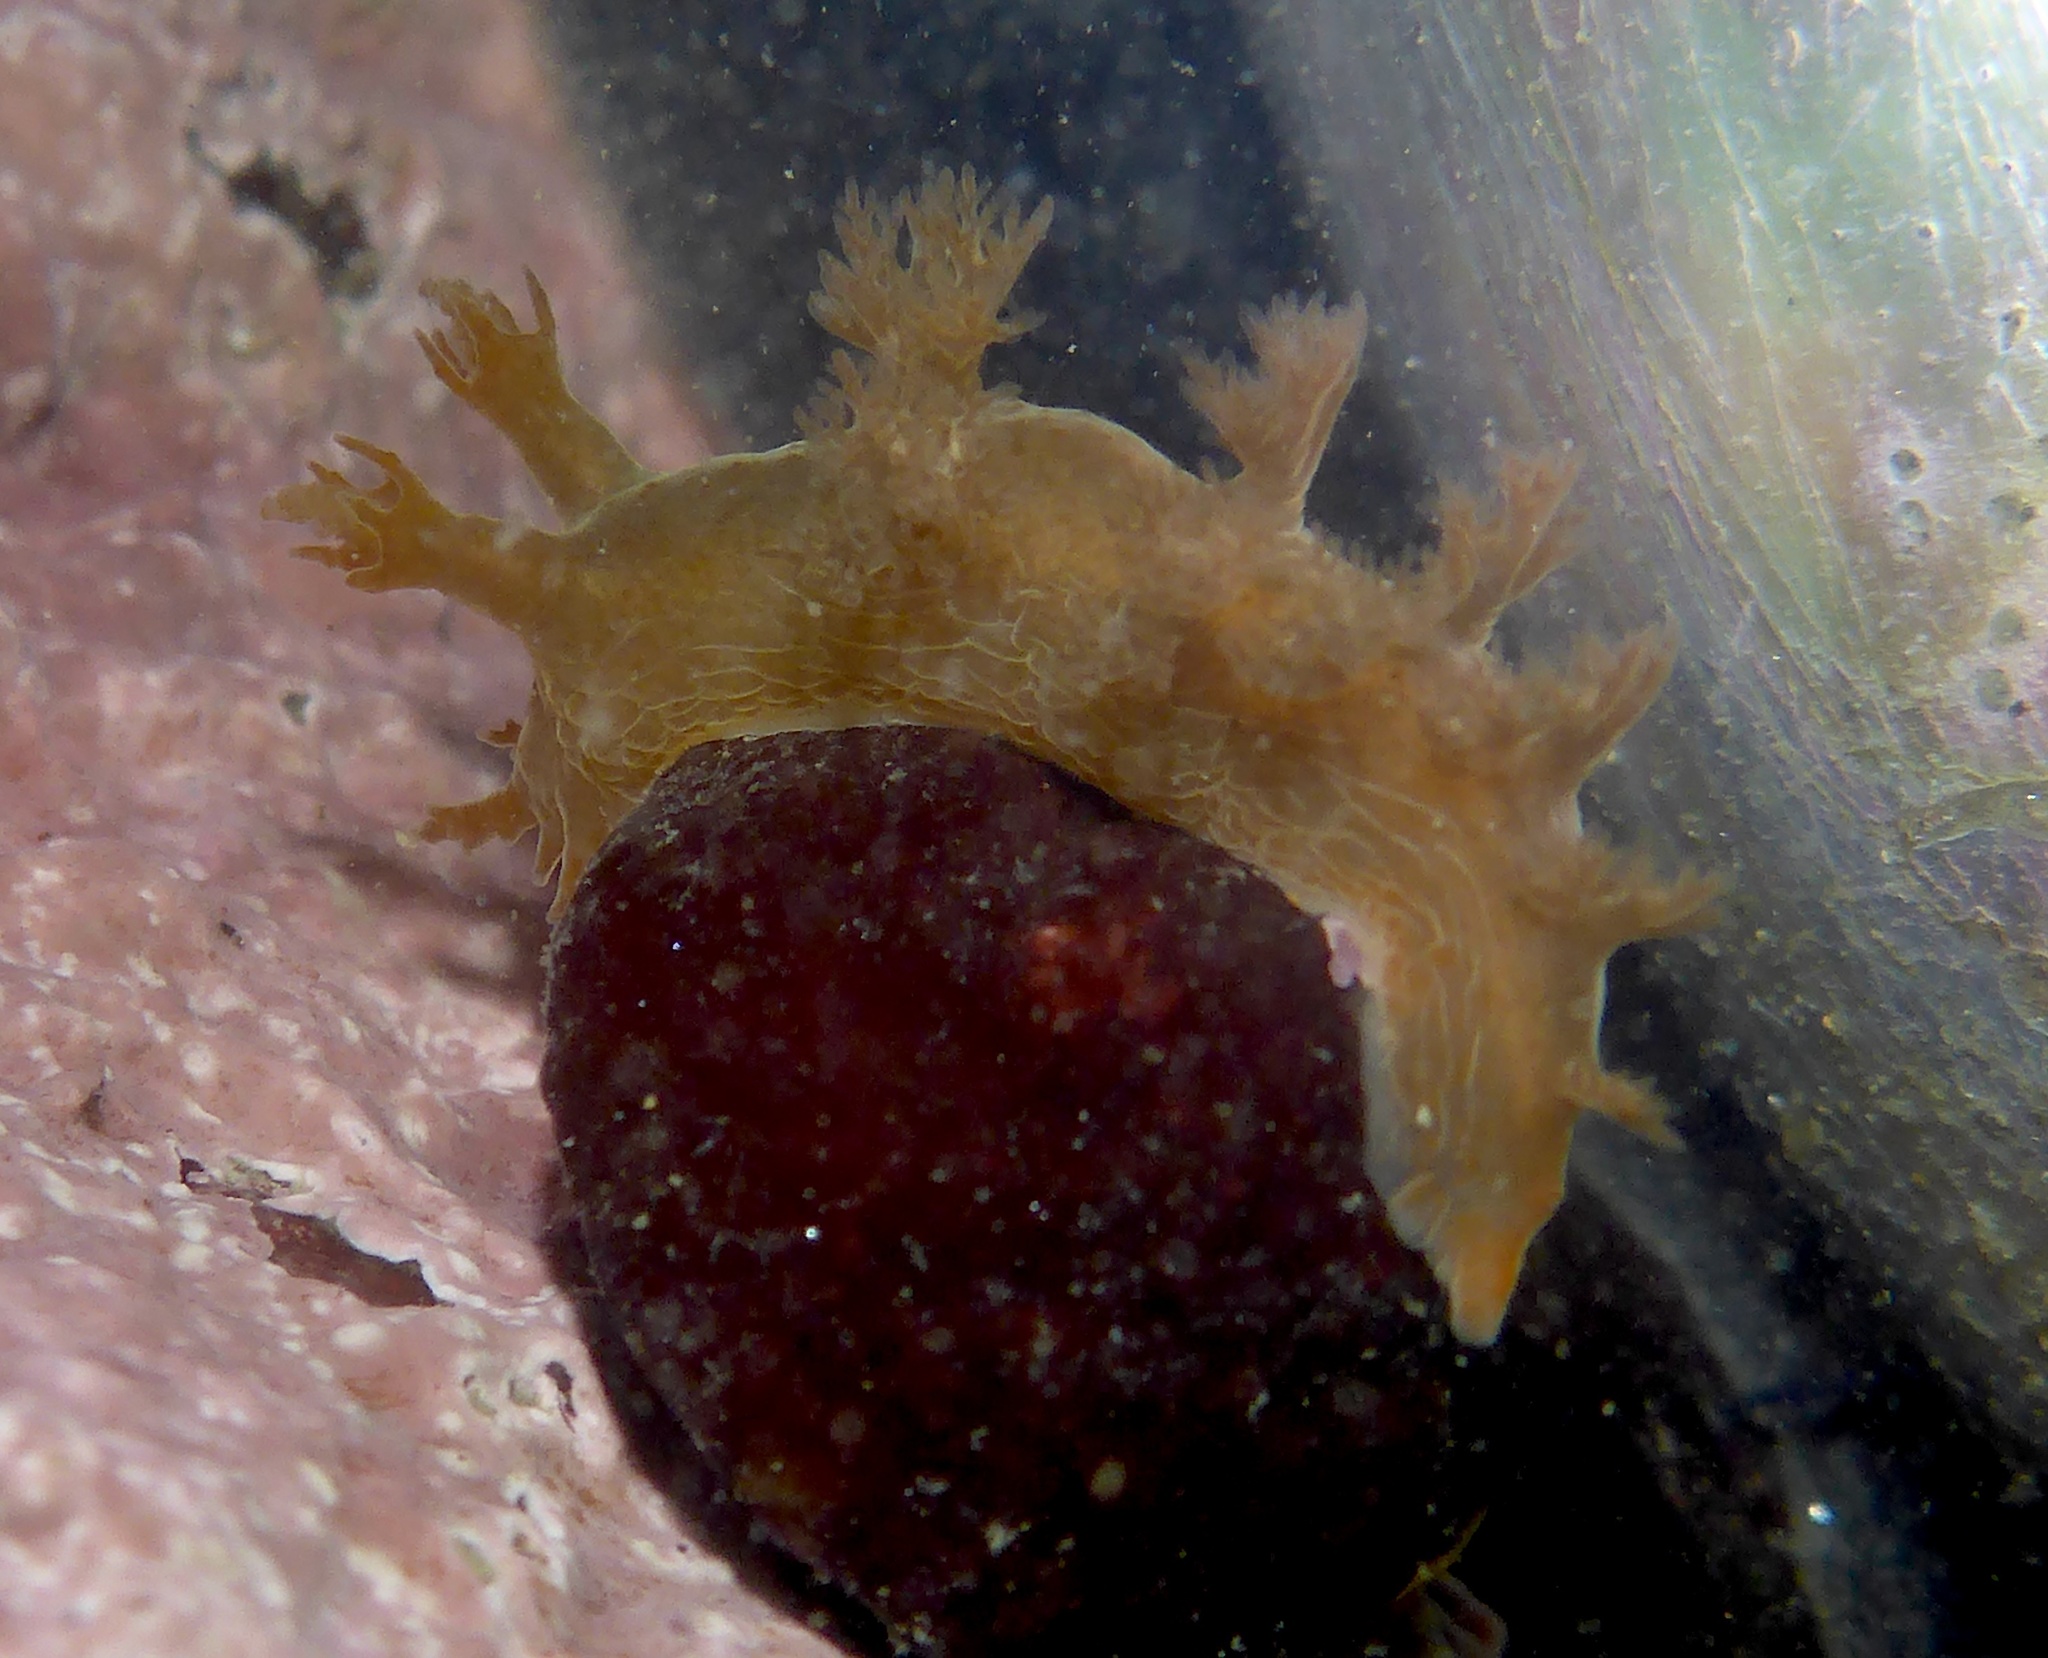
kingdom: Animalia
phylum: Mollusca
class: Gastropoda
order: Nudibranchia
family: Dendronotidae
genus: Dendronotus
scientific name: Dendronotus subramosus
